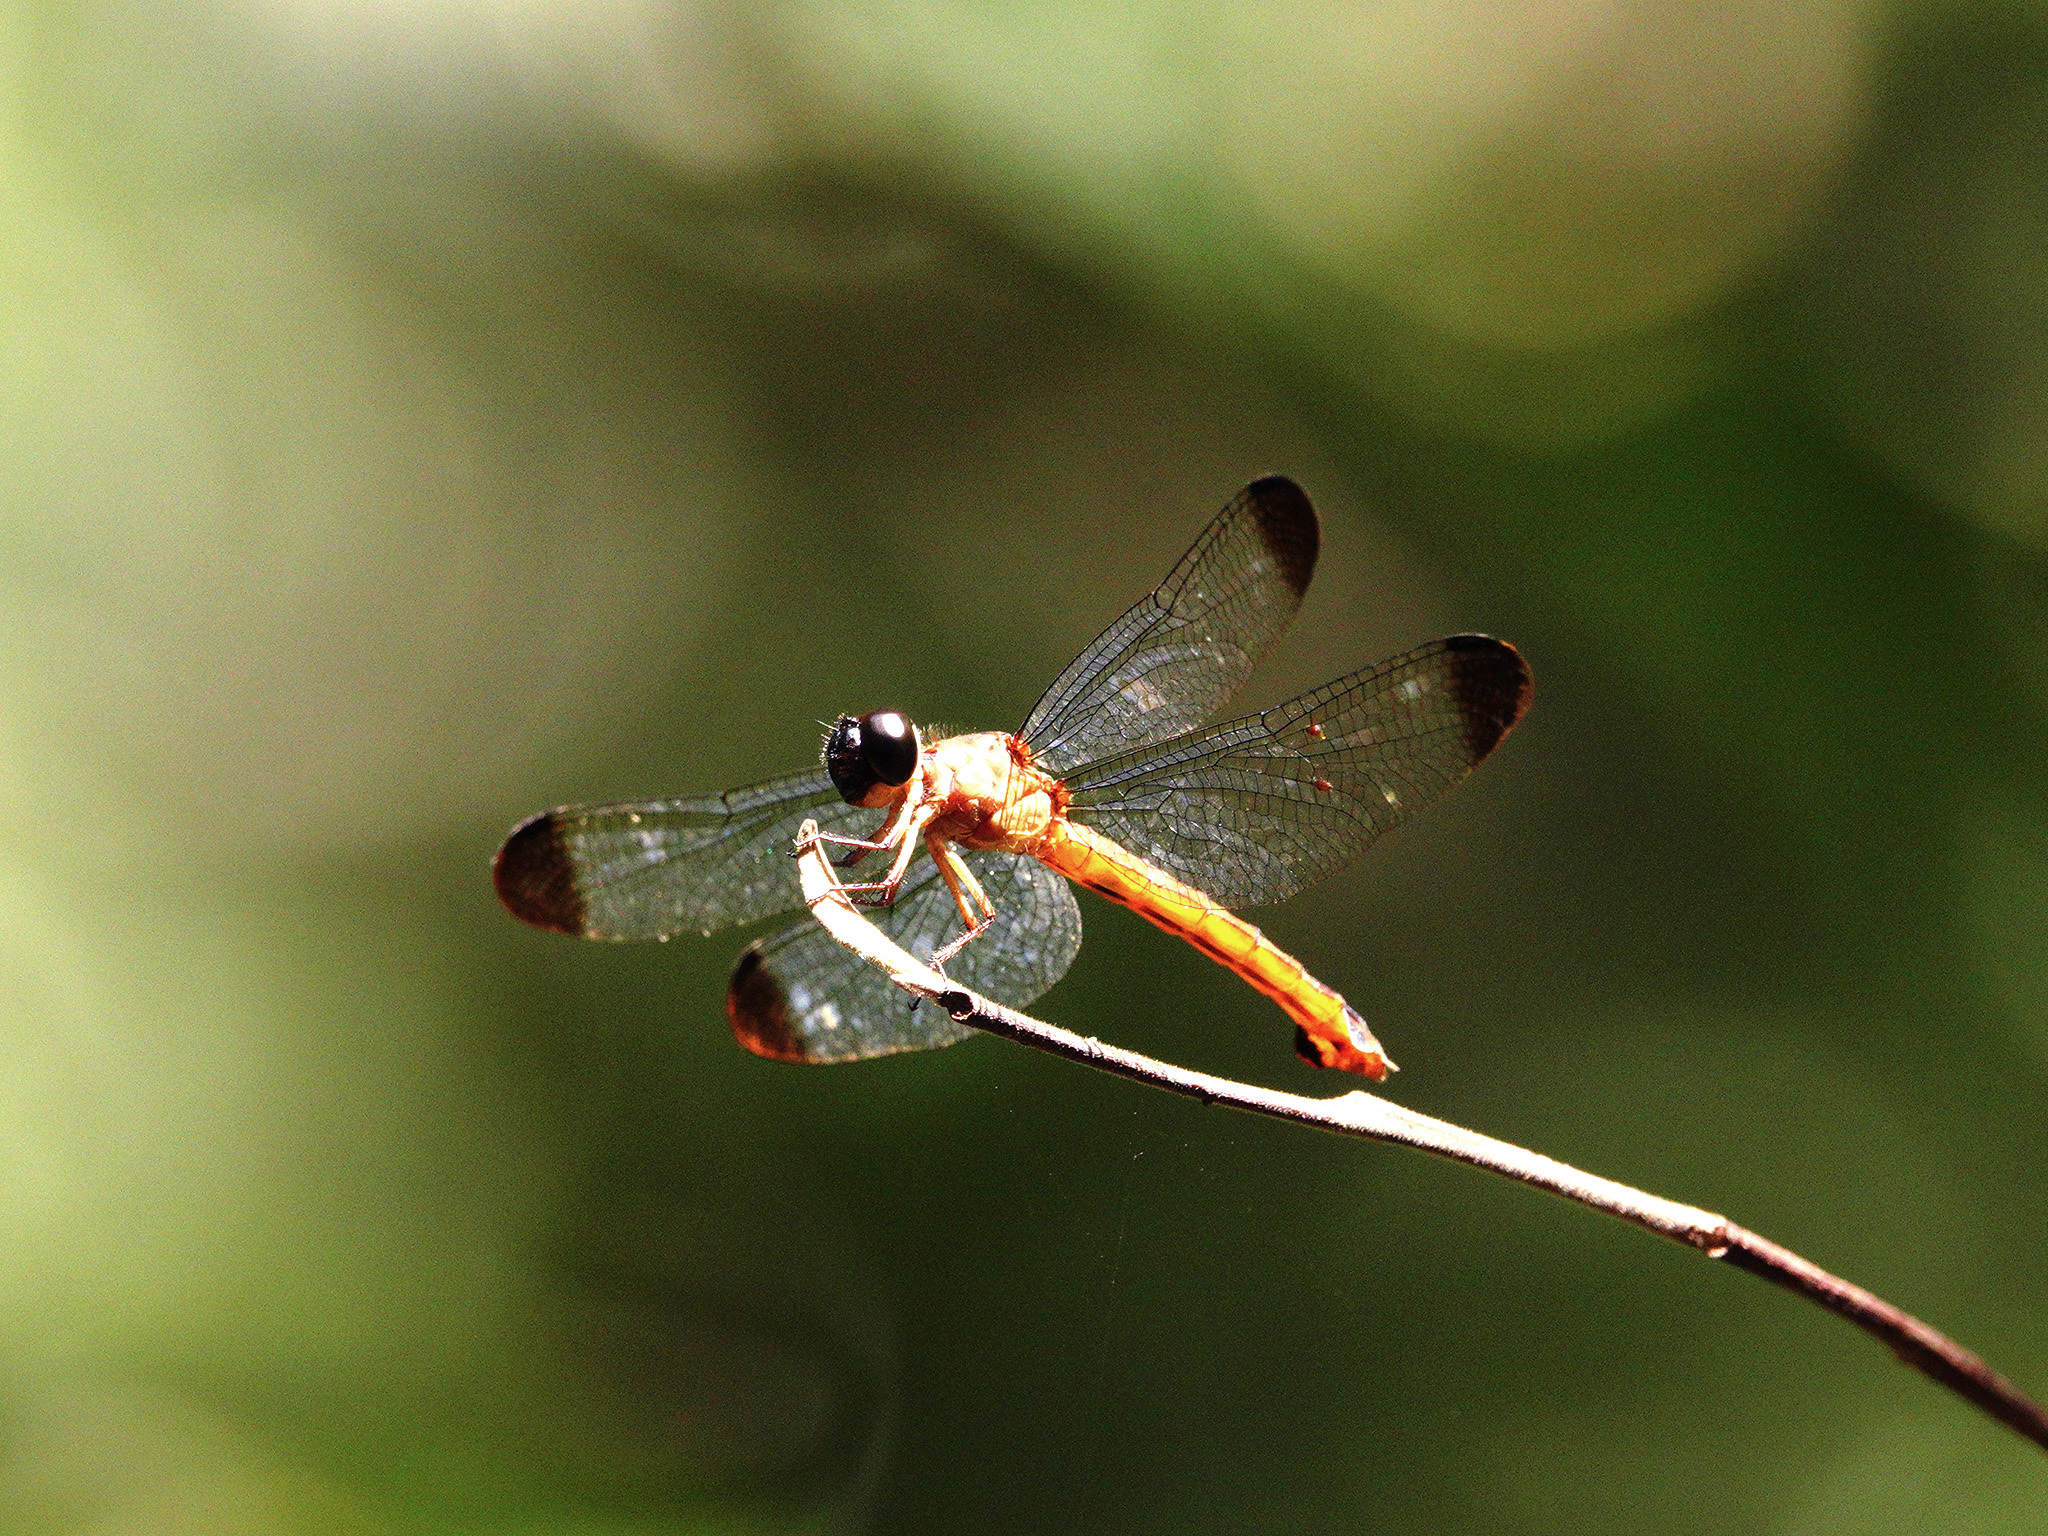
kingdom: Animalia
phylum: Arthropoda
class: Insecta
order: Odonata
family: Libellulidae
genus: Lyriothemis
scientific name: Lyriothemis biappendiculata
